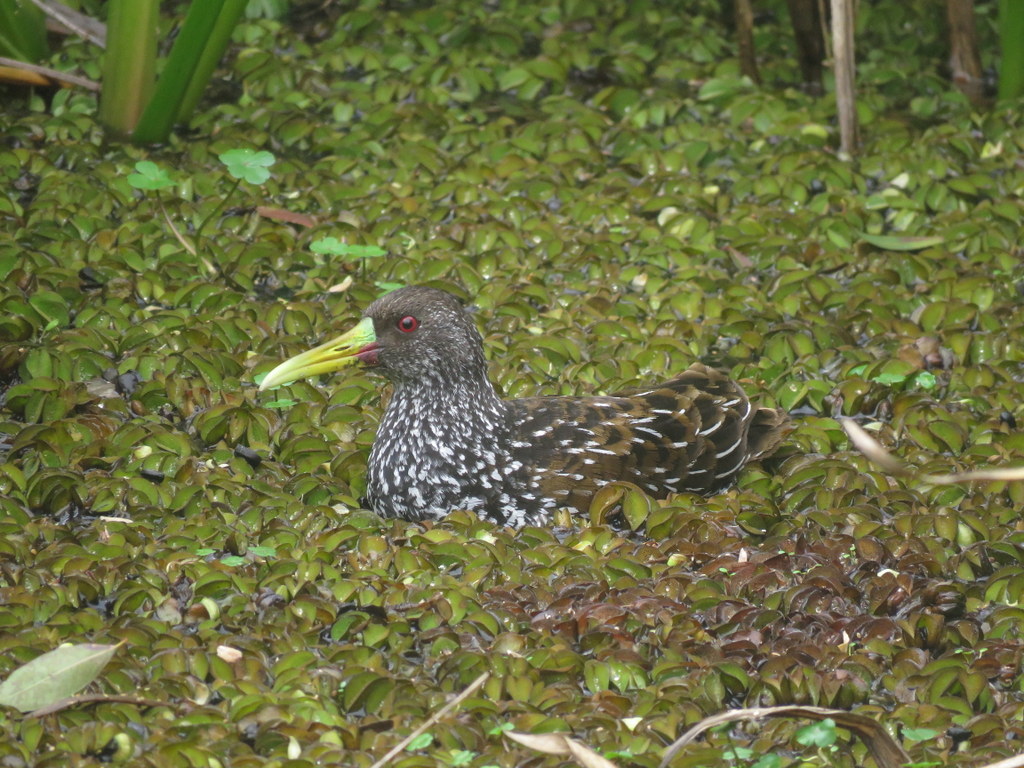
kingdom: Animalia
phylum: Chordata
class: Aves
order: Gruiformes
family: Rallidae
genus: Pardirallus
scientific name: Pardirallus maculatus
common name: Spotted rail
